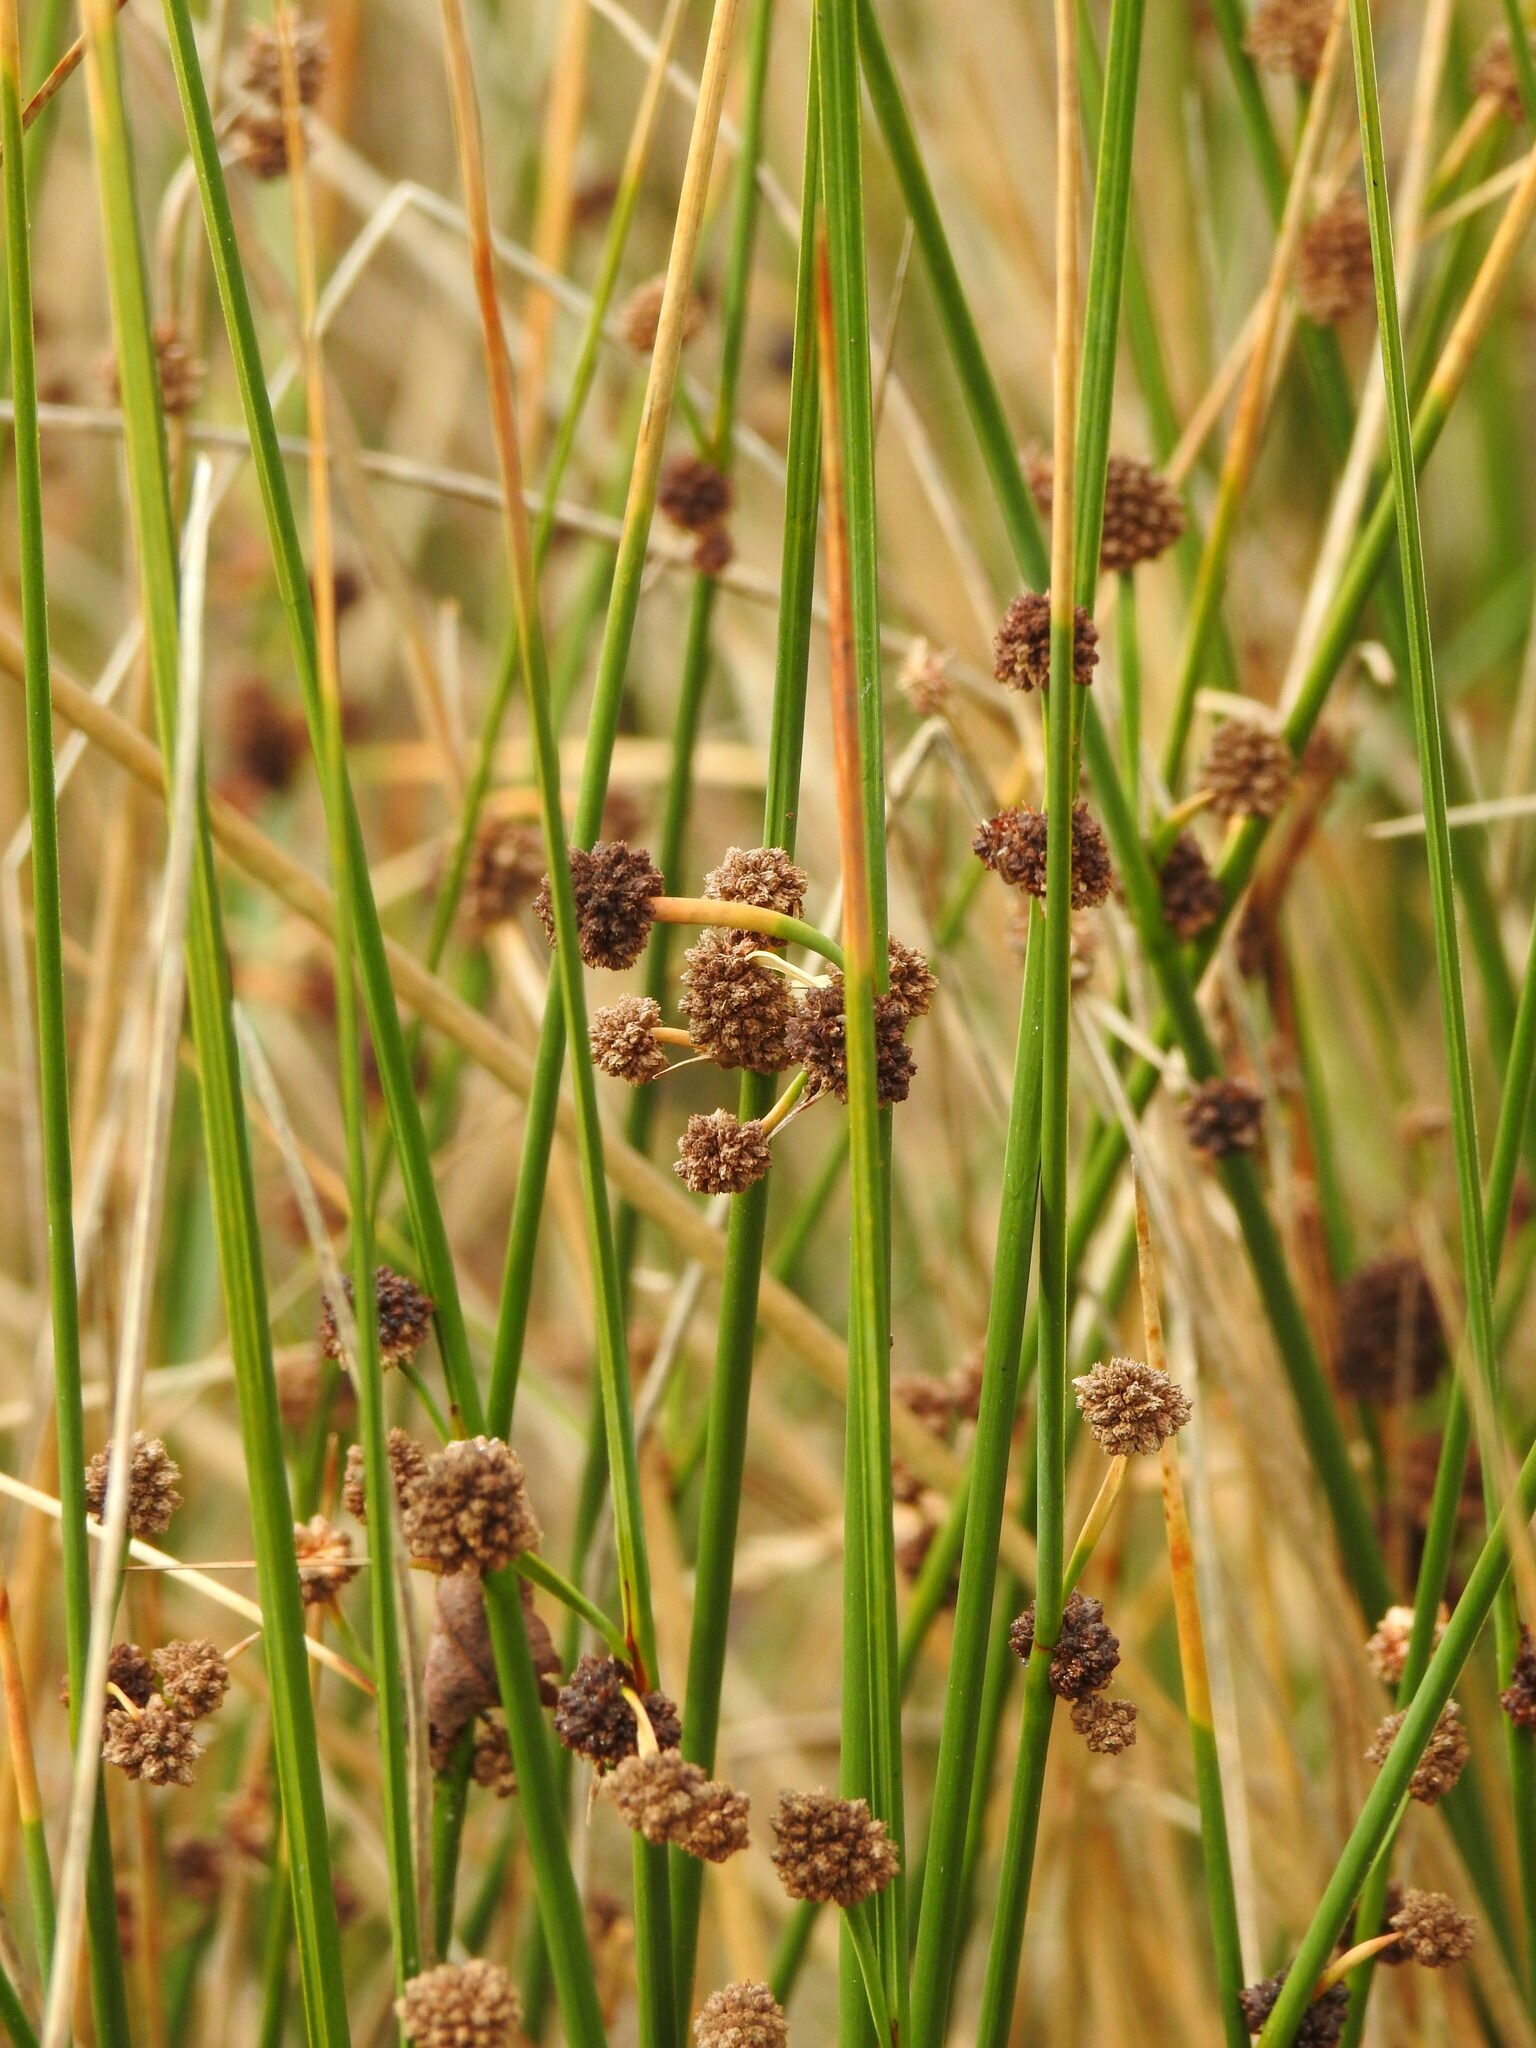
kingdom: Plantae
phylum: Tracheophyta
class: Liliopsida
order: Poales
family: Cyperaceae
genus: Scirpoides
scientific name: Scirpoides holoschoenus
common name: Round-headed club-rush
